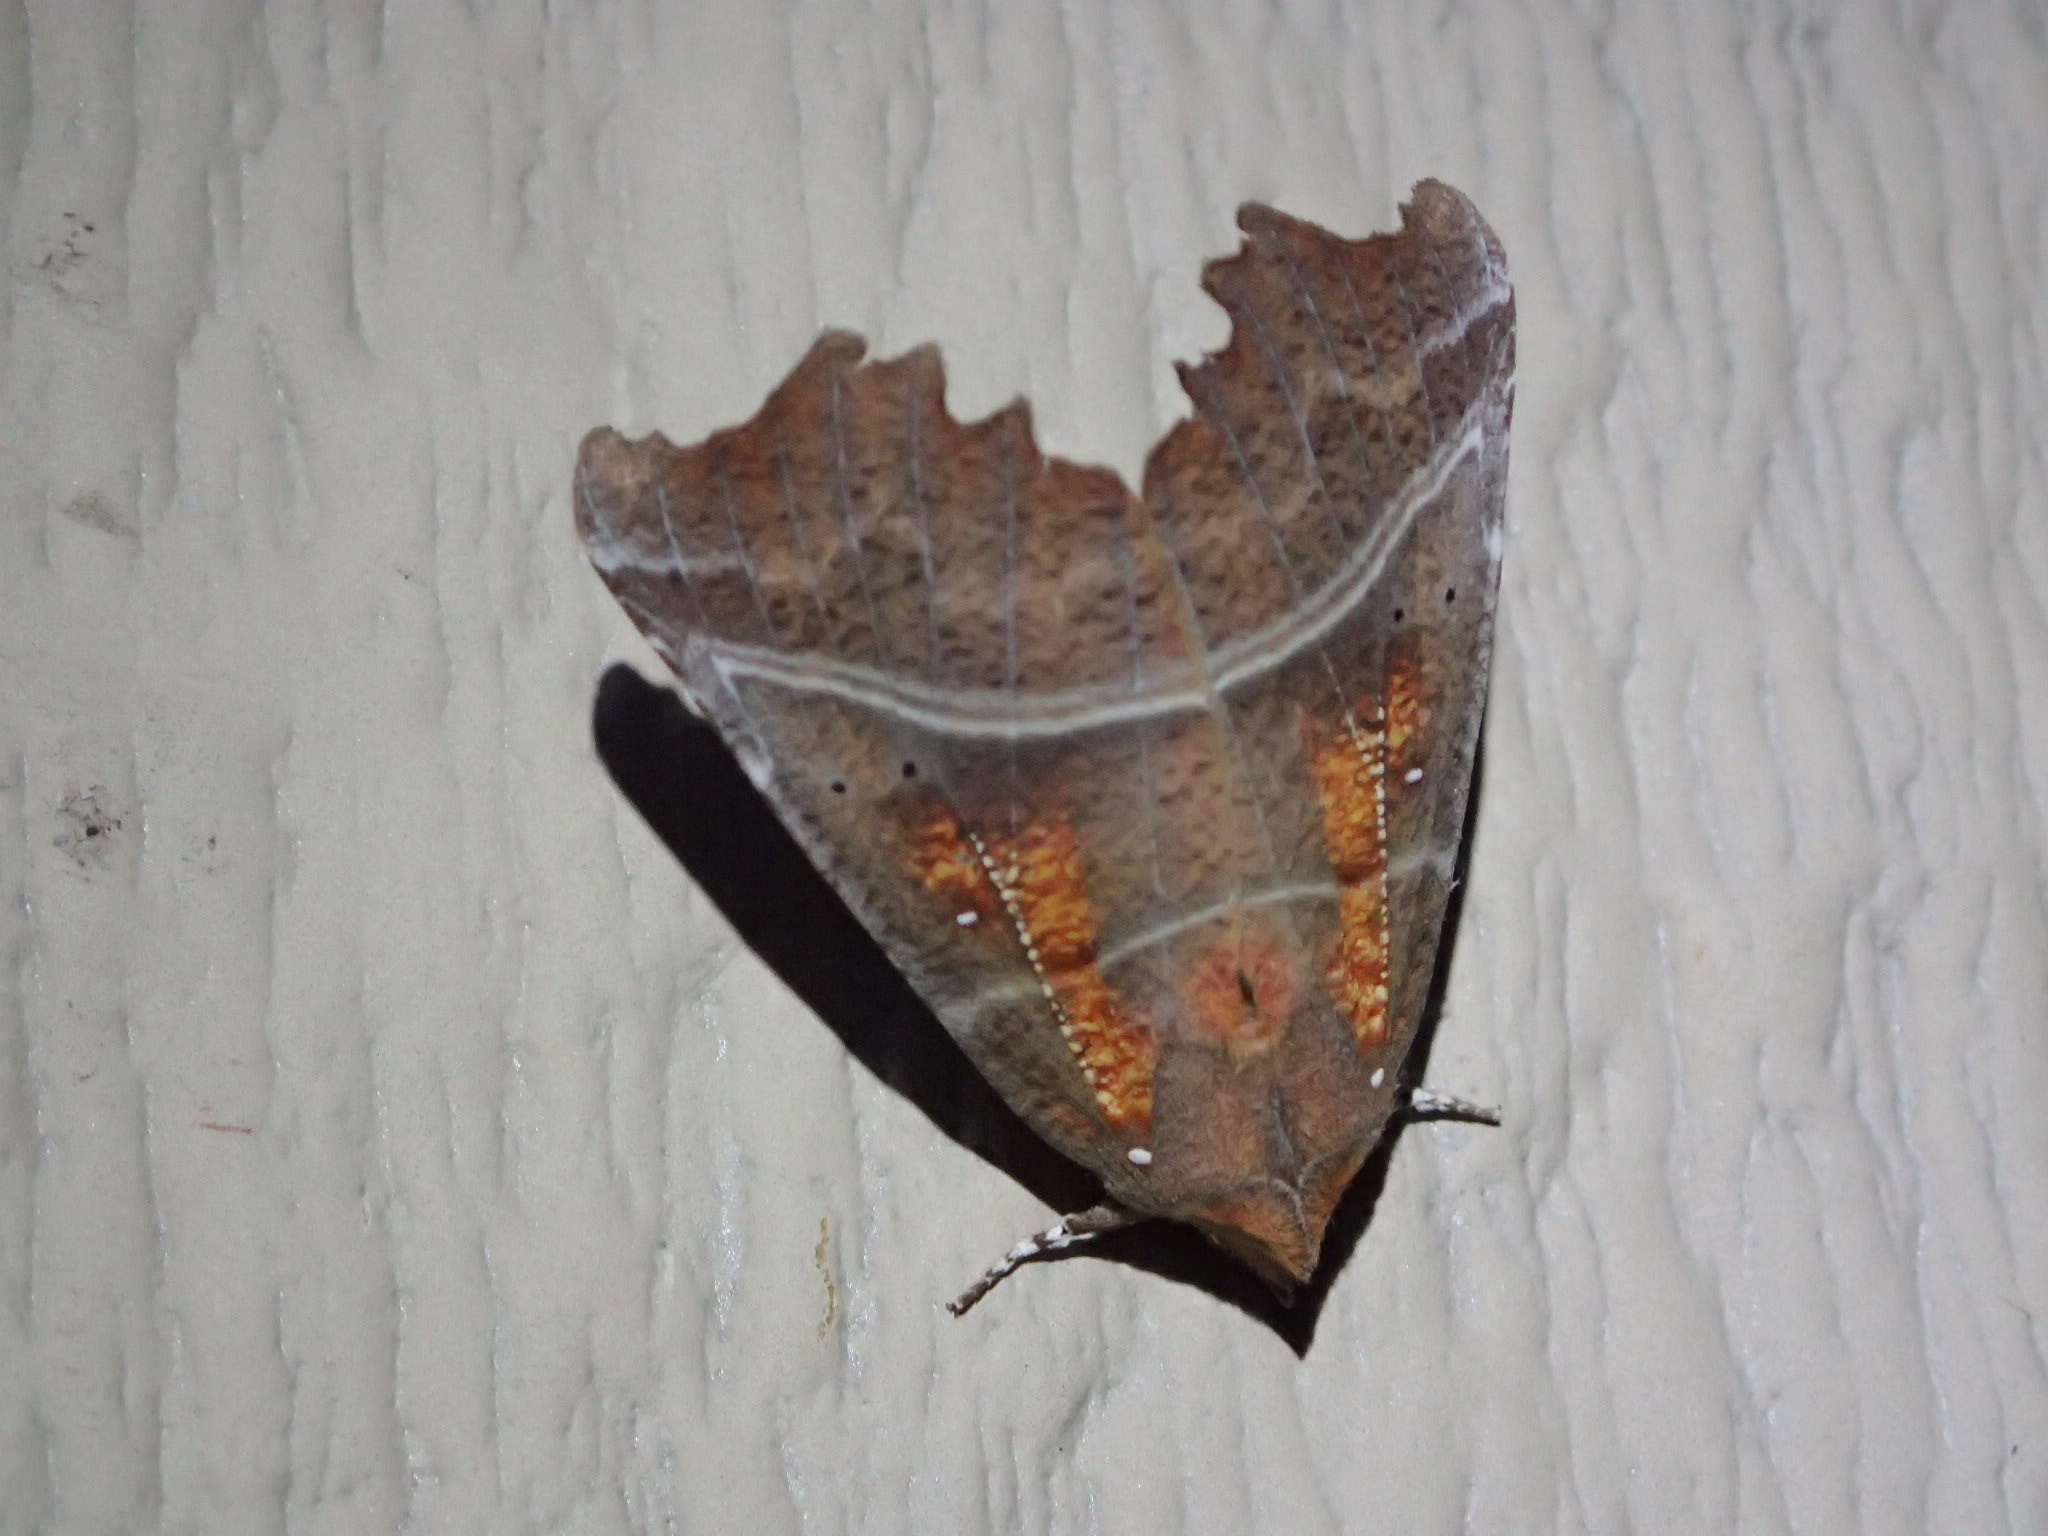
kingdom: Animalia
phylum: Arthropoda
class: Insecta
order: Lepidoptera
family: Erebidae
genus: Scoliopteryx
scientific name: Scoliopteryx libatrix
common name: Herald
